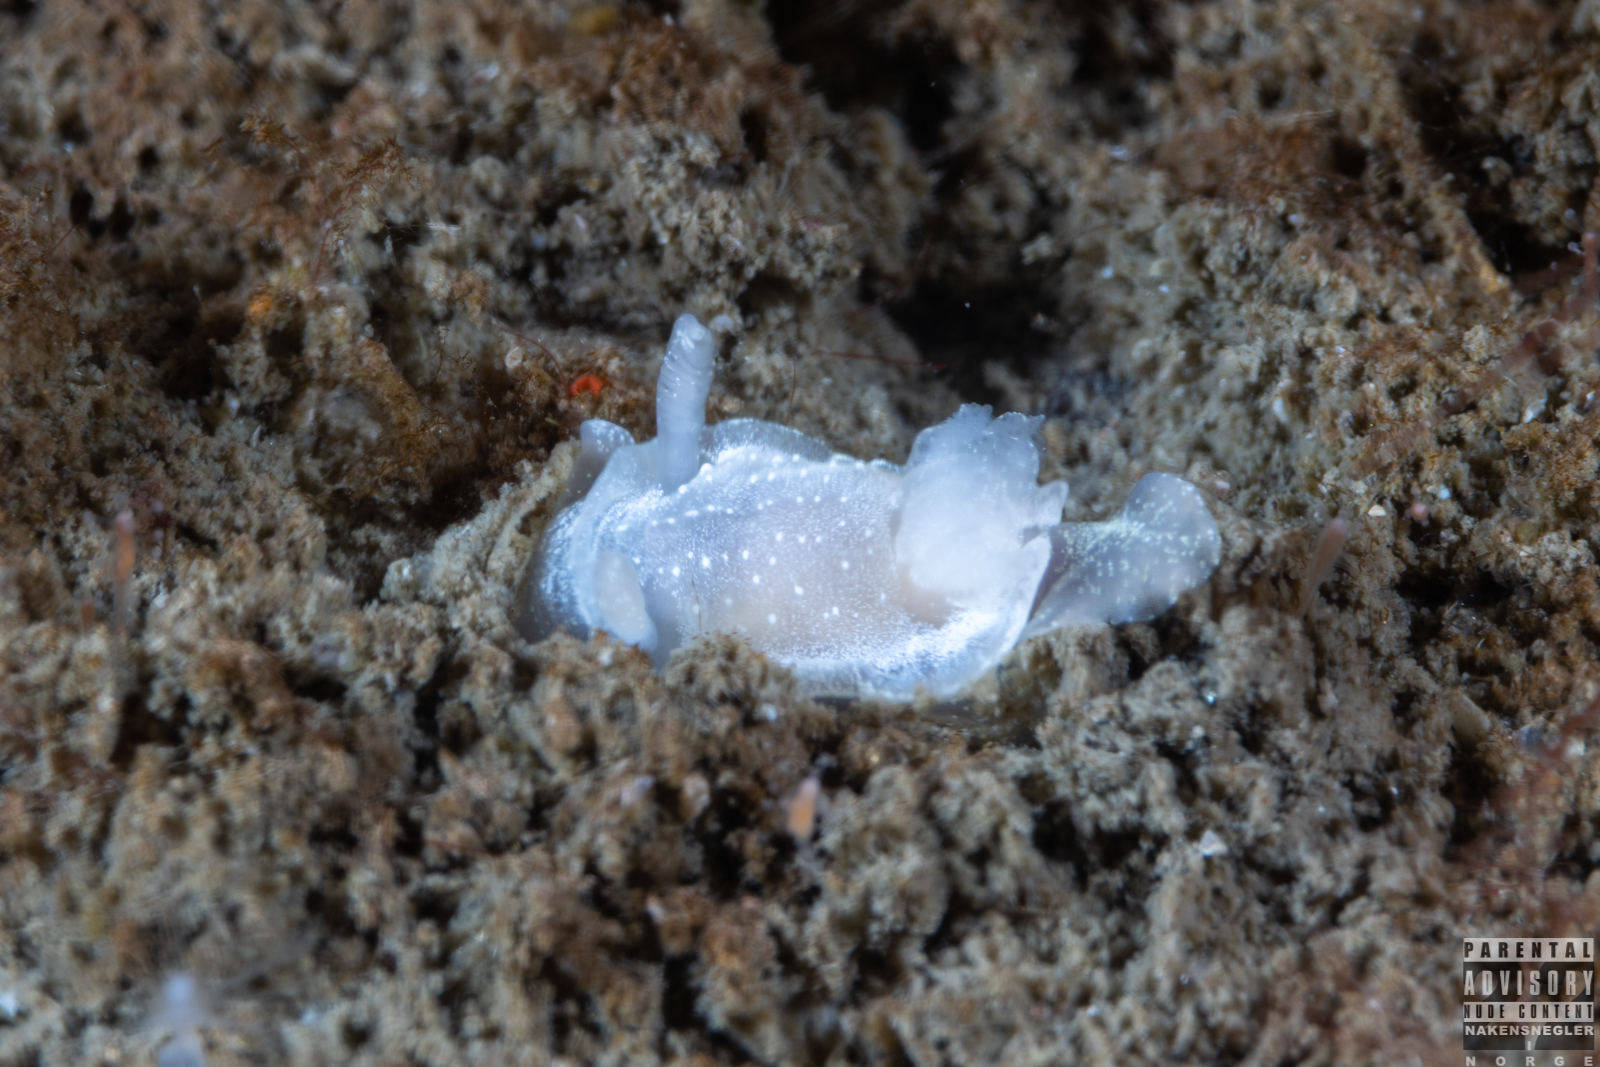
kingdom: Animalia
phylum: Mollusca
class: Gastropoda
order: Nudibranchia
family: Goniodorididae
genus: Okenia
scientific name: Okenia
